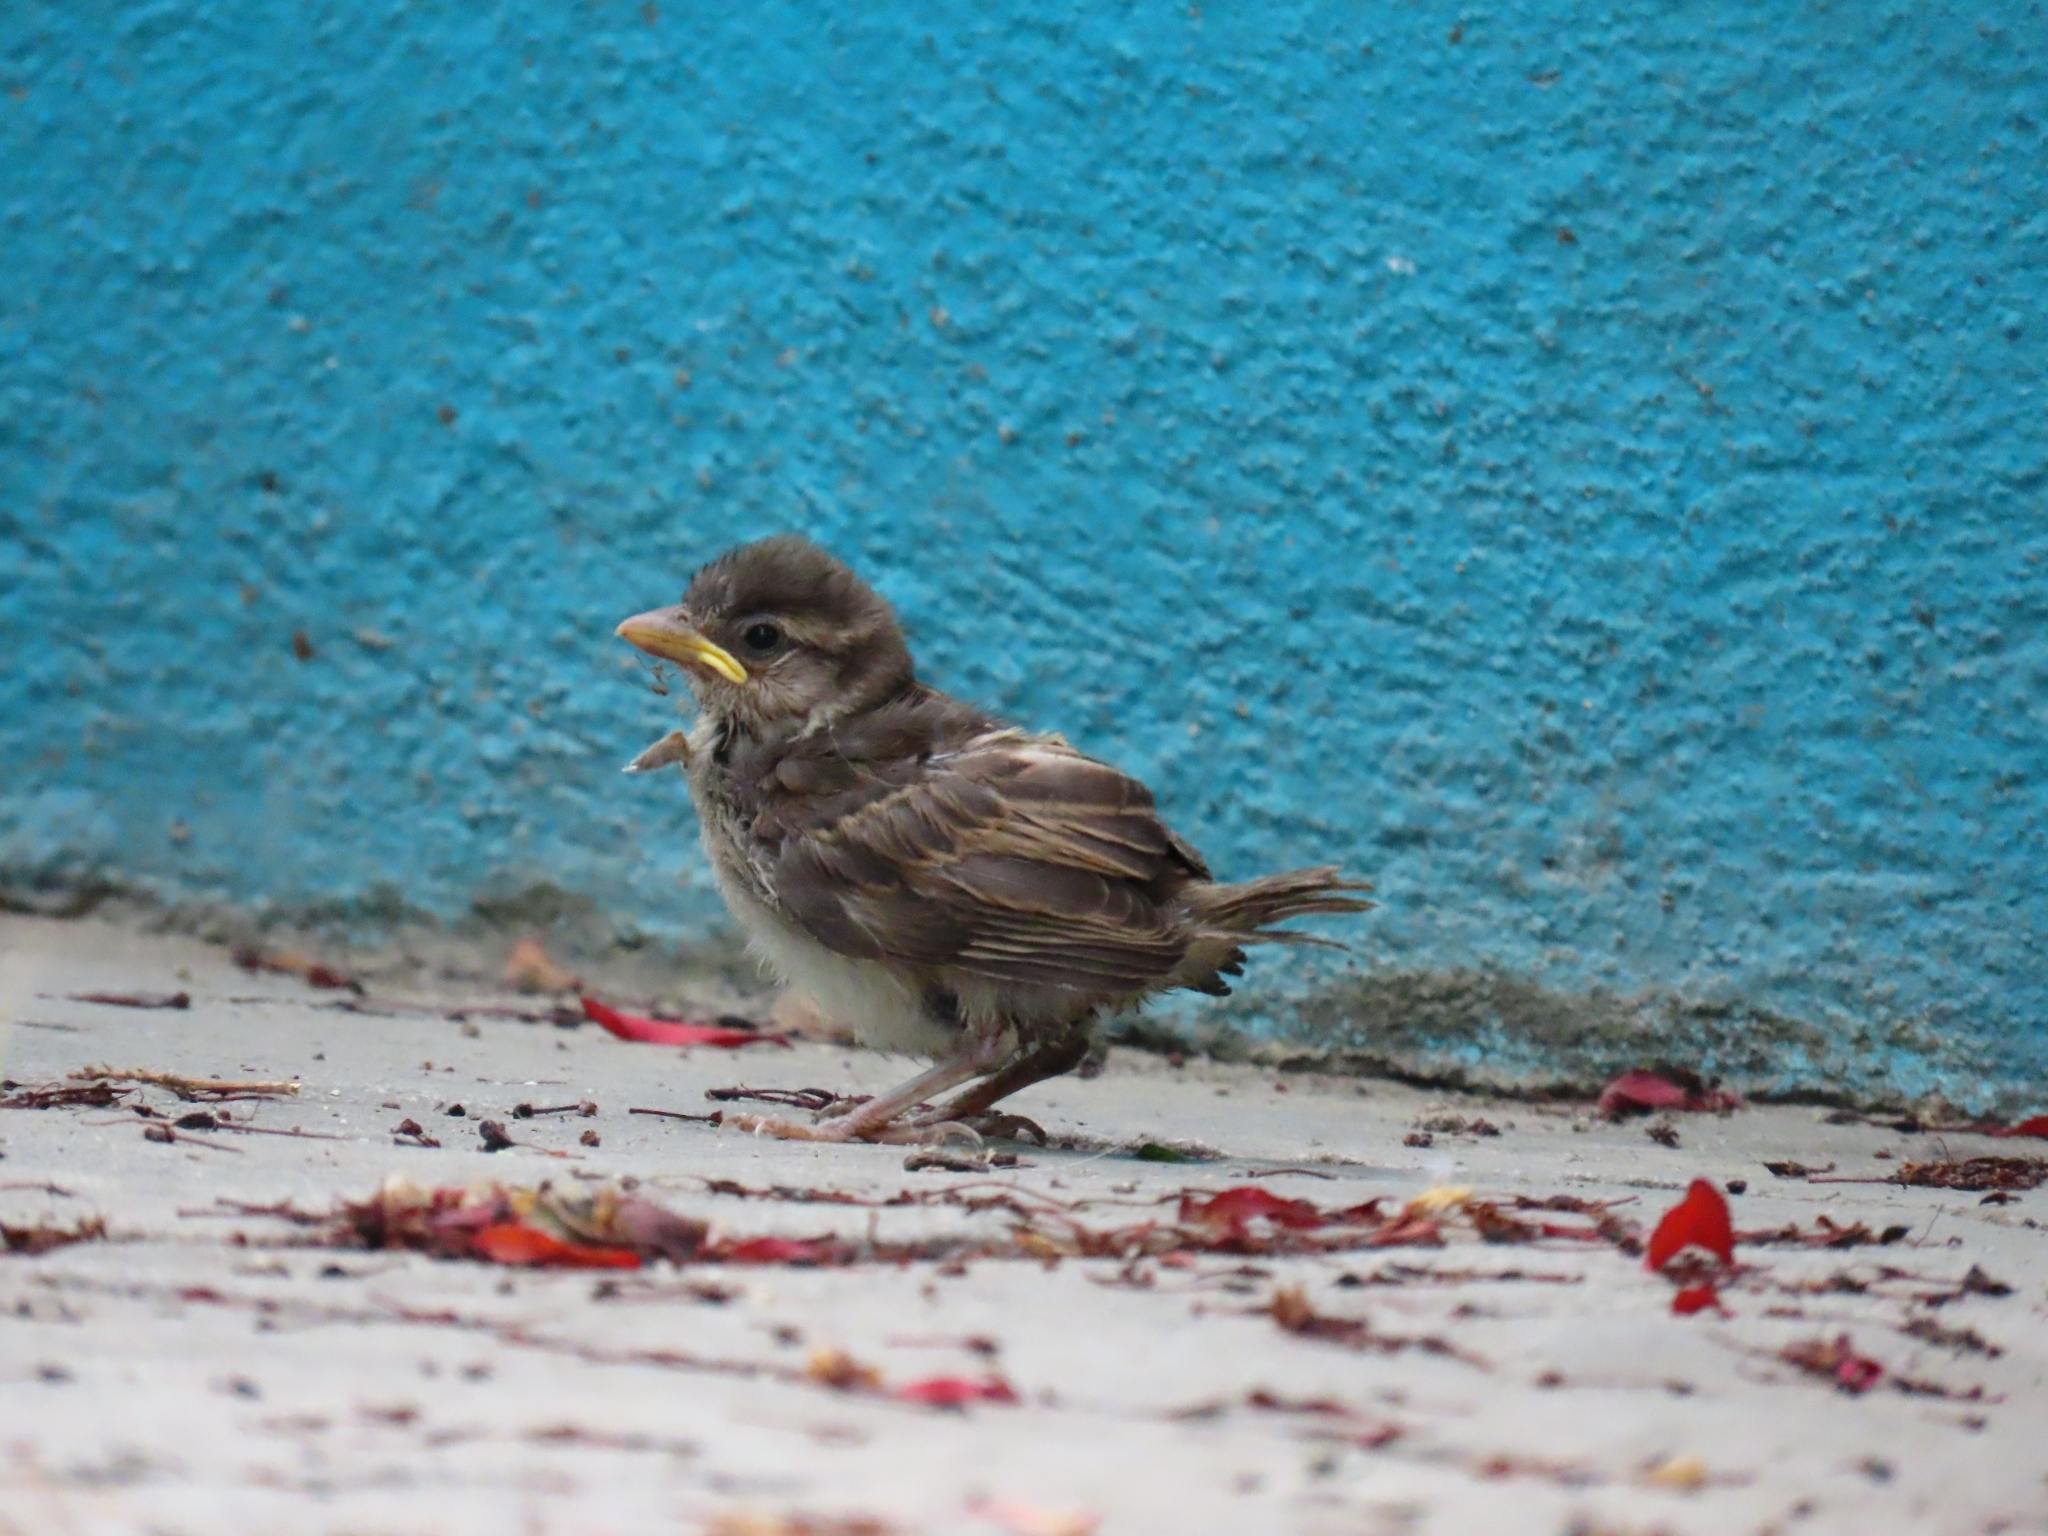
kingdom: Animalia
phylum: Chordata
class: Aves
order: Passeriformes
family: Passeridae
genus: Passer
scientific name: Passer domesticus
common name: House sparrow
